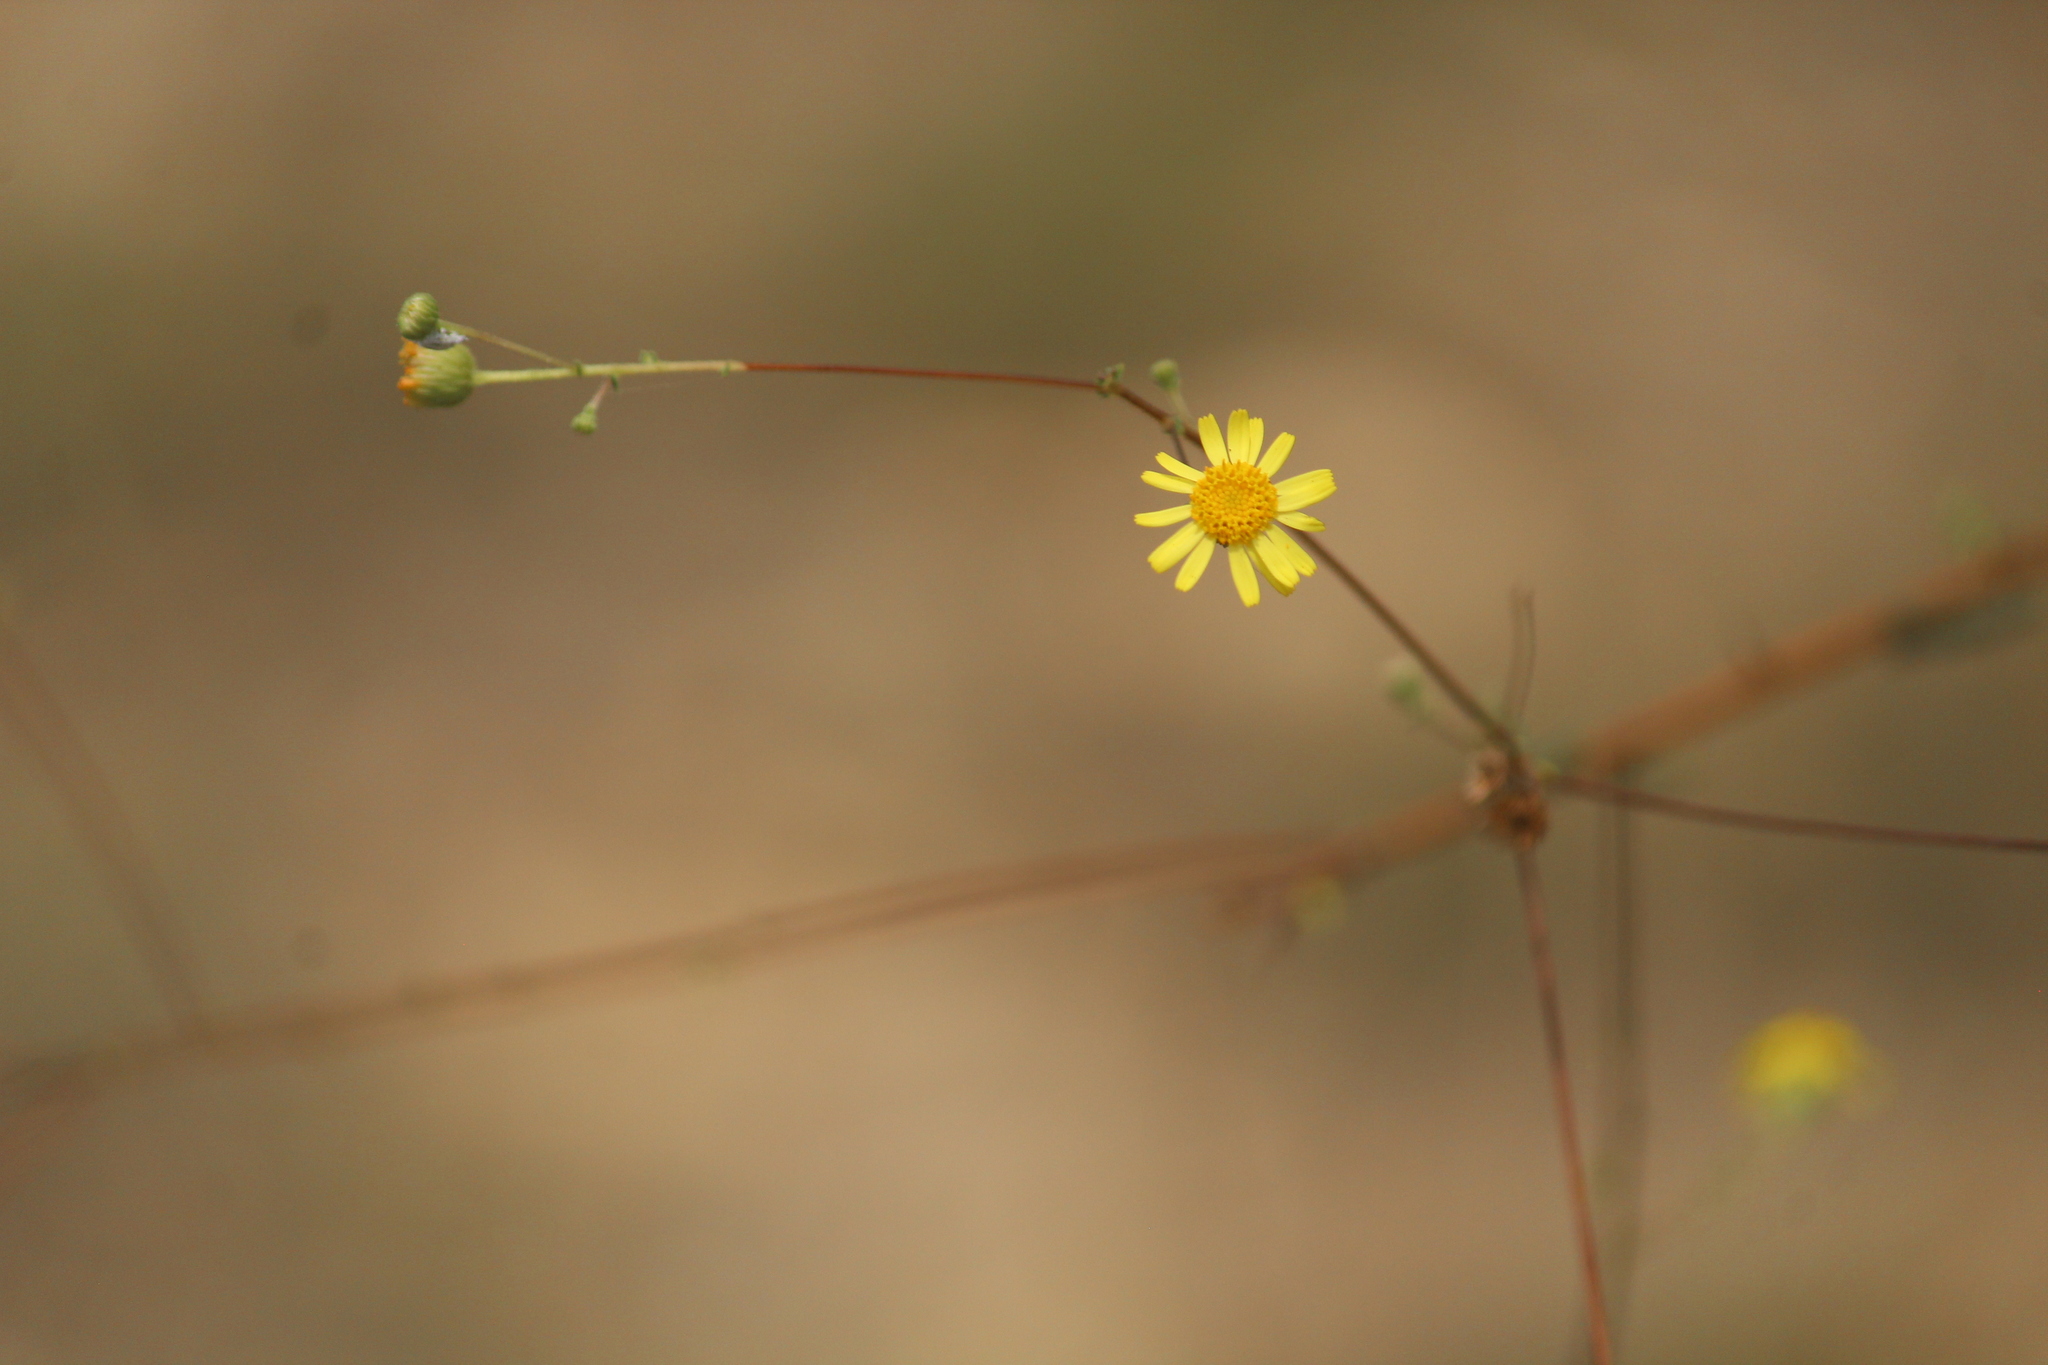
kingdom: Plantae
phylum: Tracheophyta
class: Magnoliopsida
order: Asterales
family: Asteraceae
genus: Vicoa
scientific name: Vicoa indica
